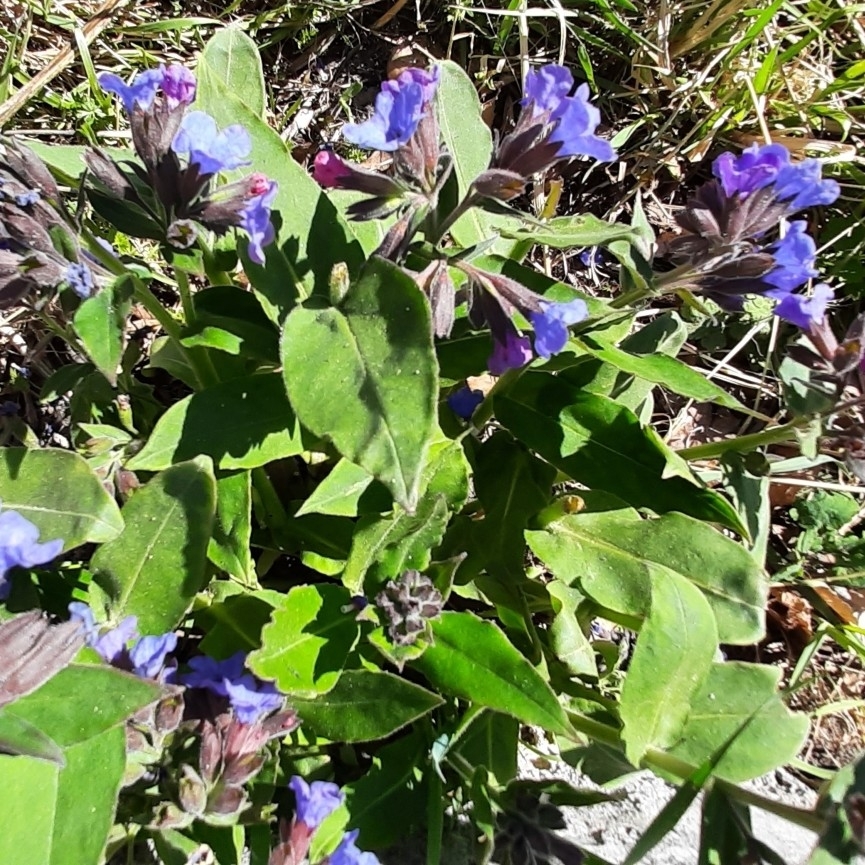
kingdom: Plantae
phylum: Tracheophyta
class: Magnoliopsida
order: Boraginales
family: Boraginaceae
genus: Pulmonaria
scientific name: Pulmonaria mollis
